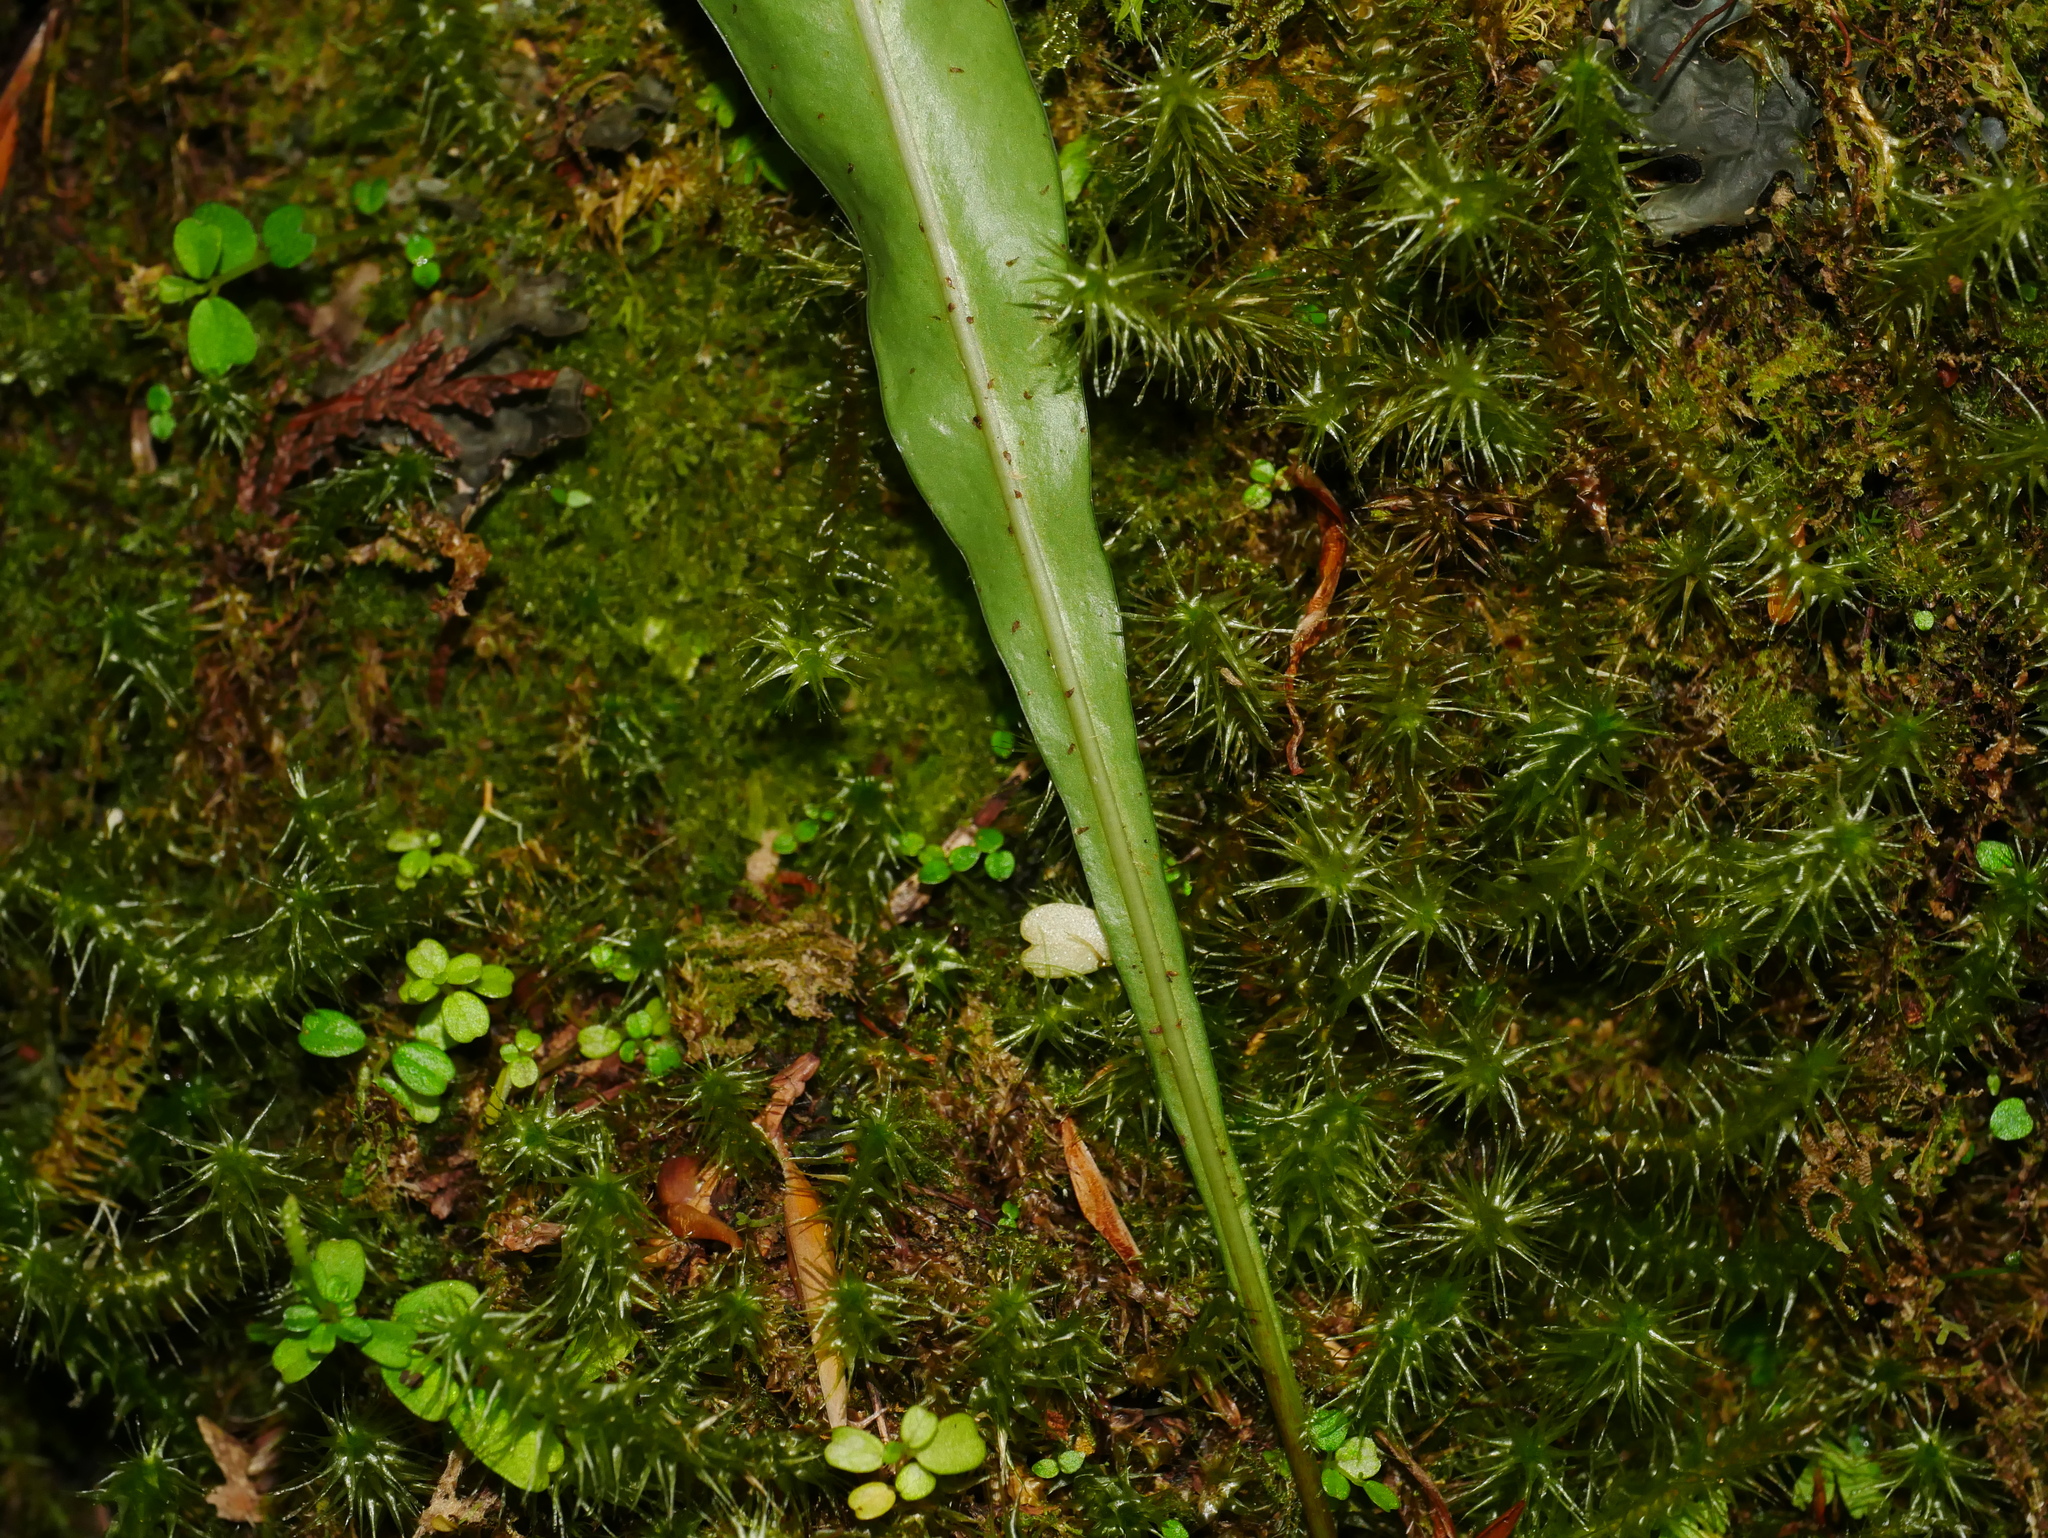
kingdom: Plantae
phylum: Tracheophyta
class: Polypodiopsida
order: Polypodiales
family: Polypodiaceae
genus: Lepisorus
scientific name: Lepisorus kawakamii
